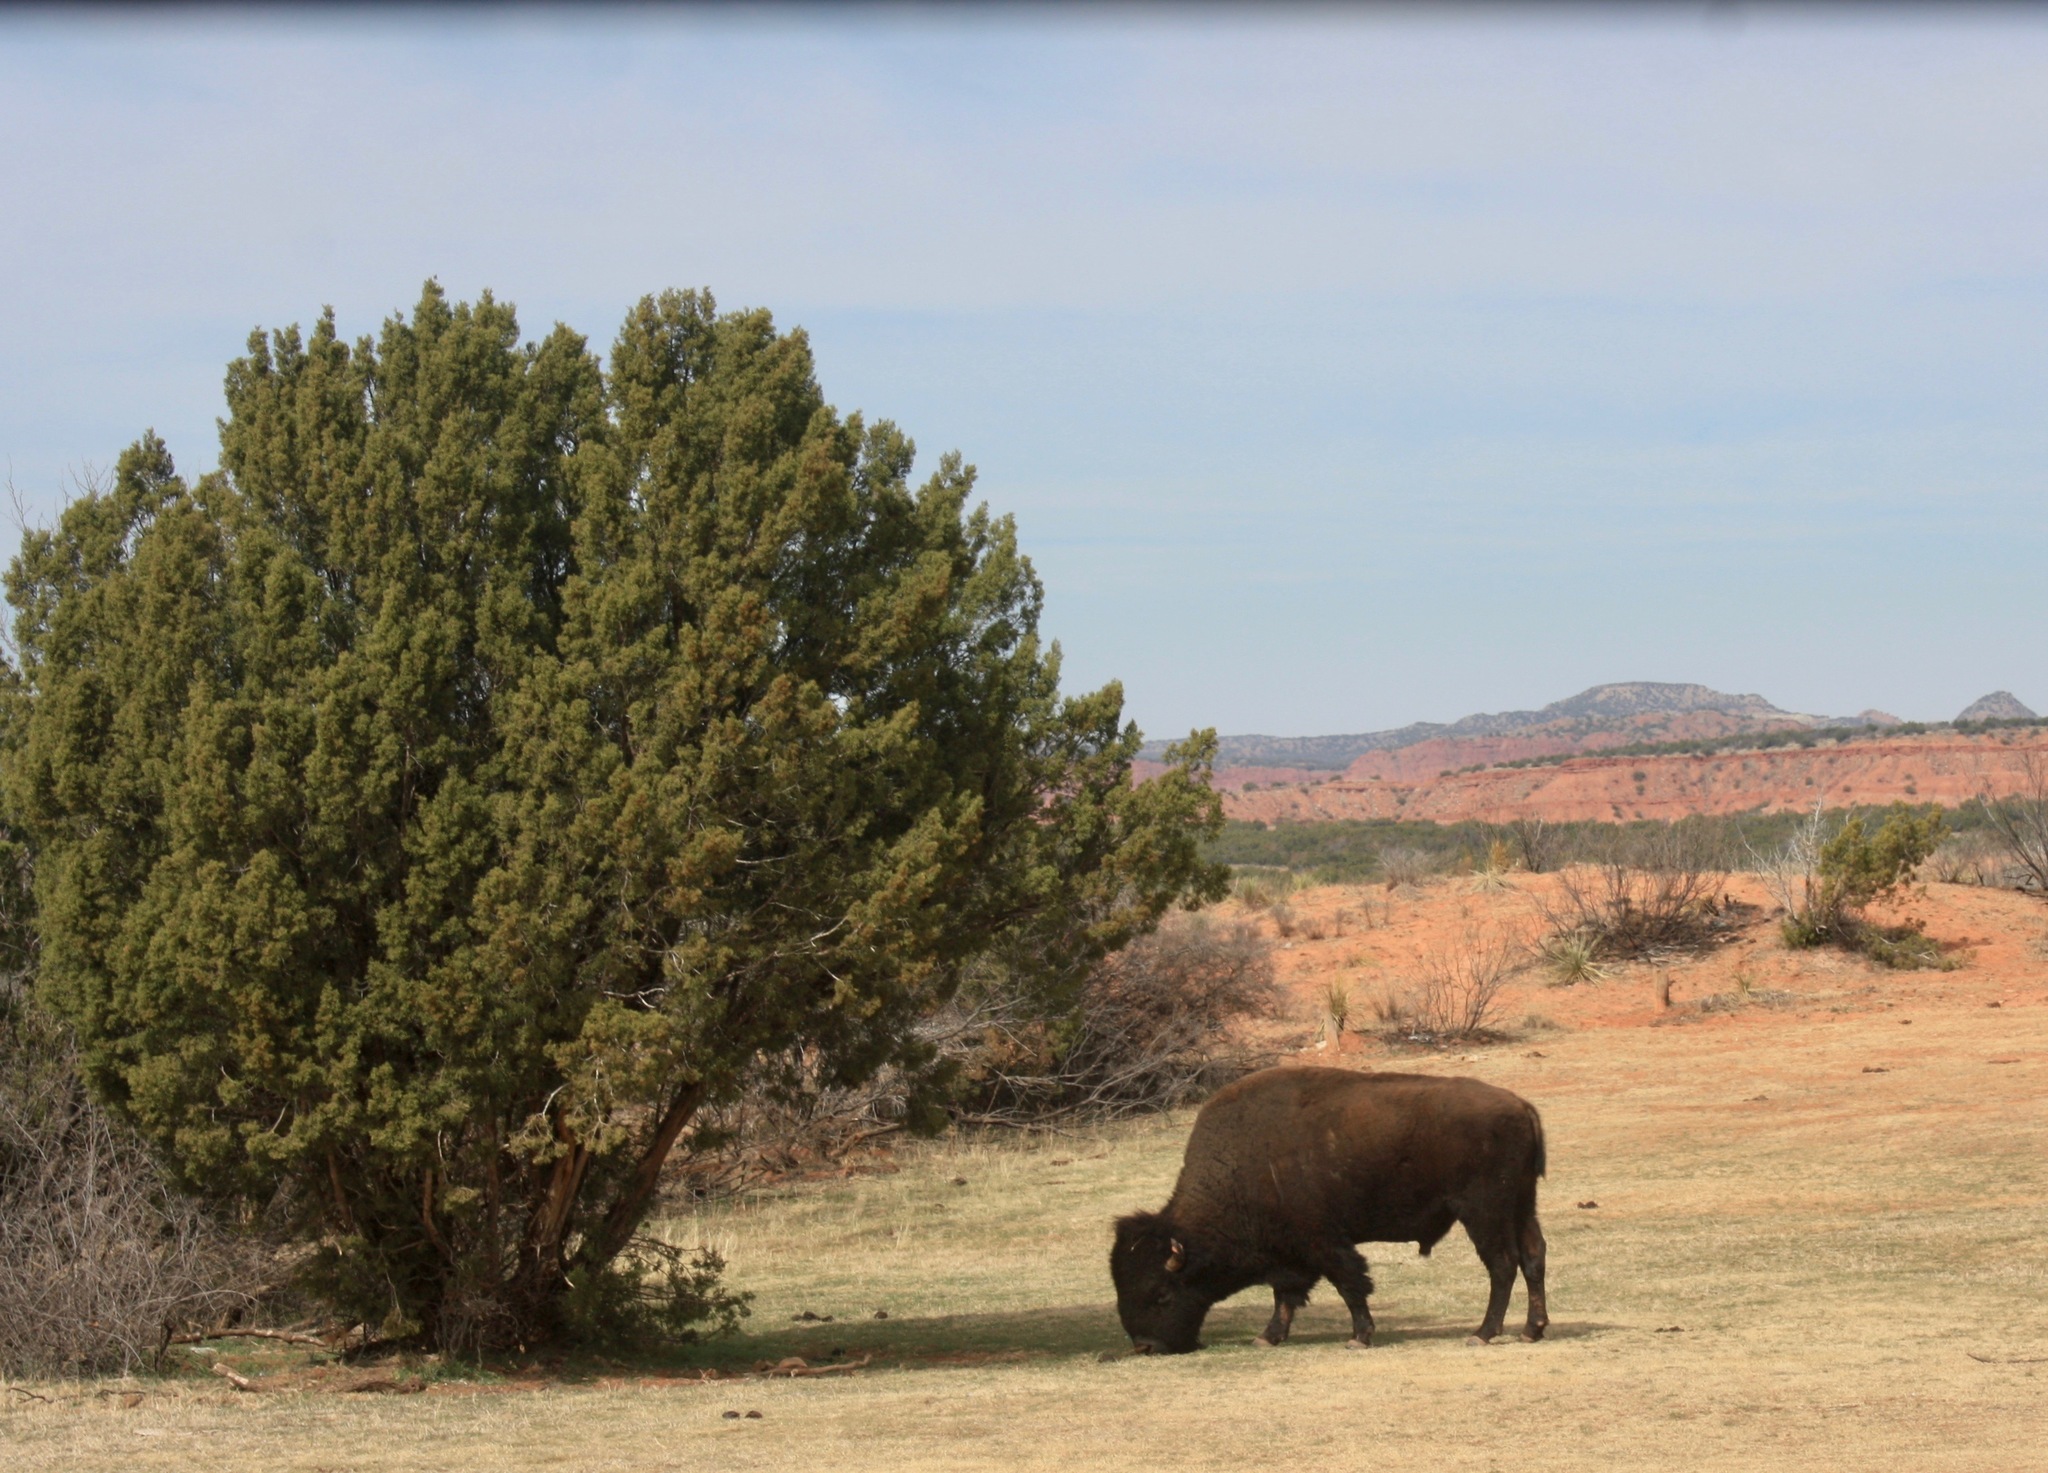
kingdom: Animalia
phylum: Chordata
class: Mammalia
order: Artiodactyla
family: Bovidae
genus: Bison
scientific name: Bison bison
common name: American bison
